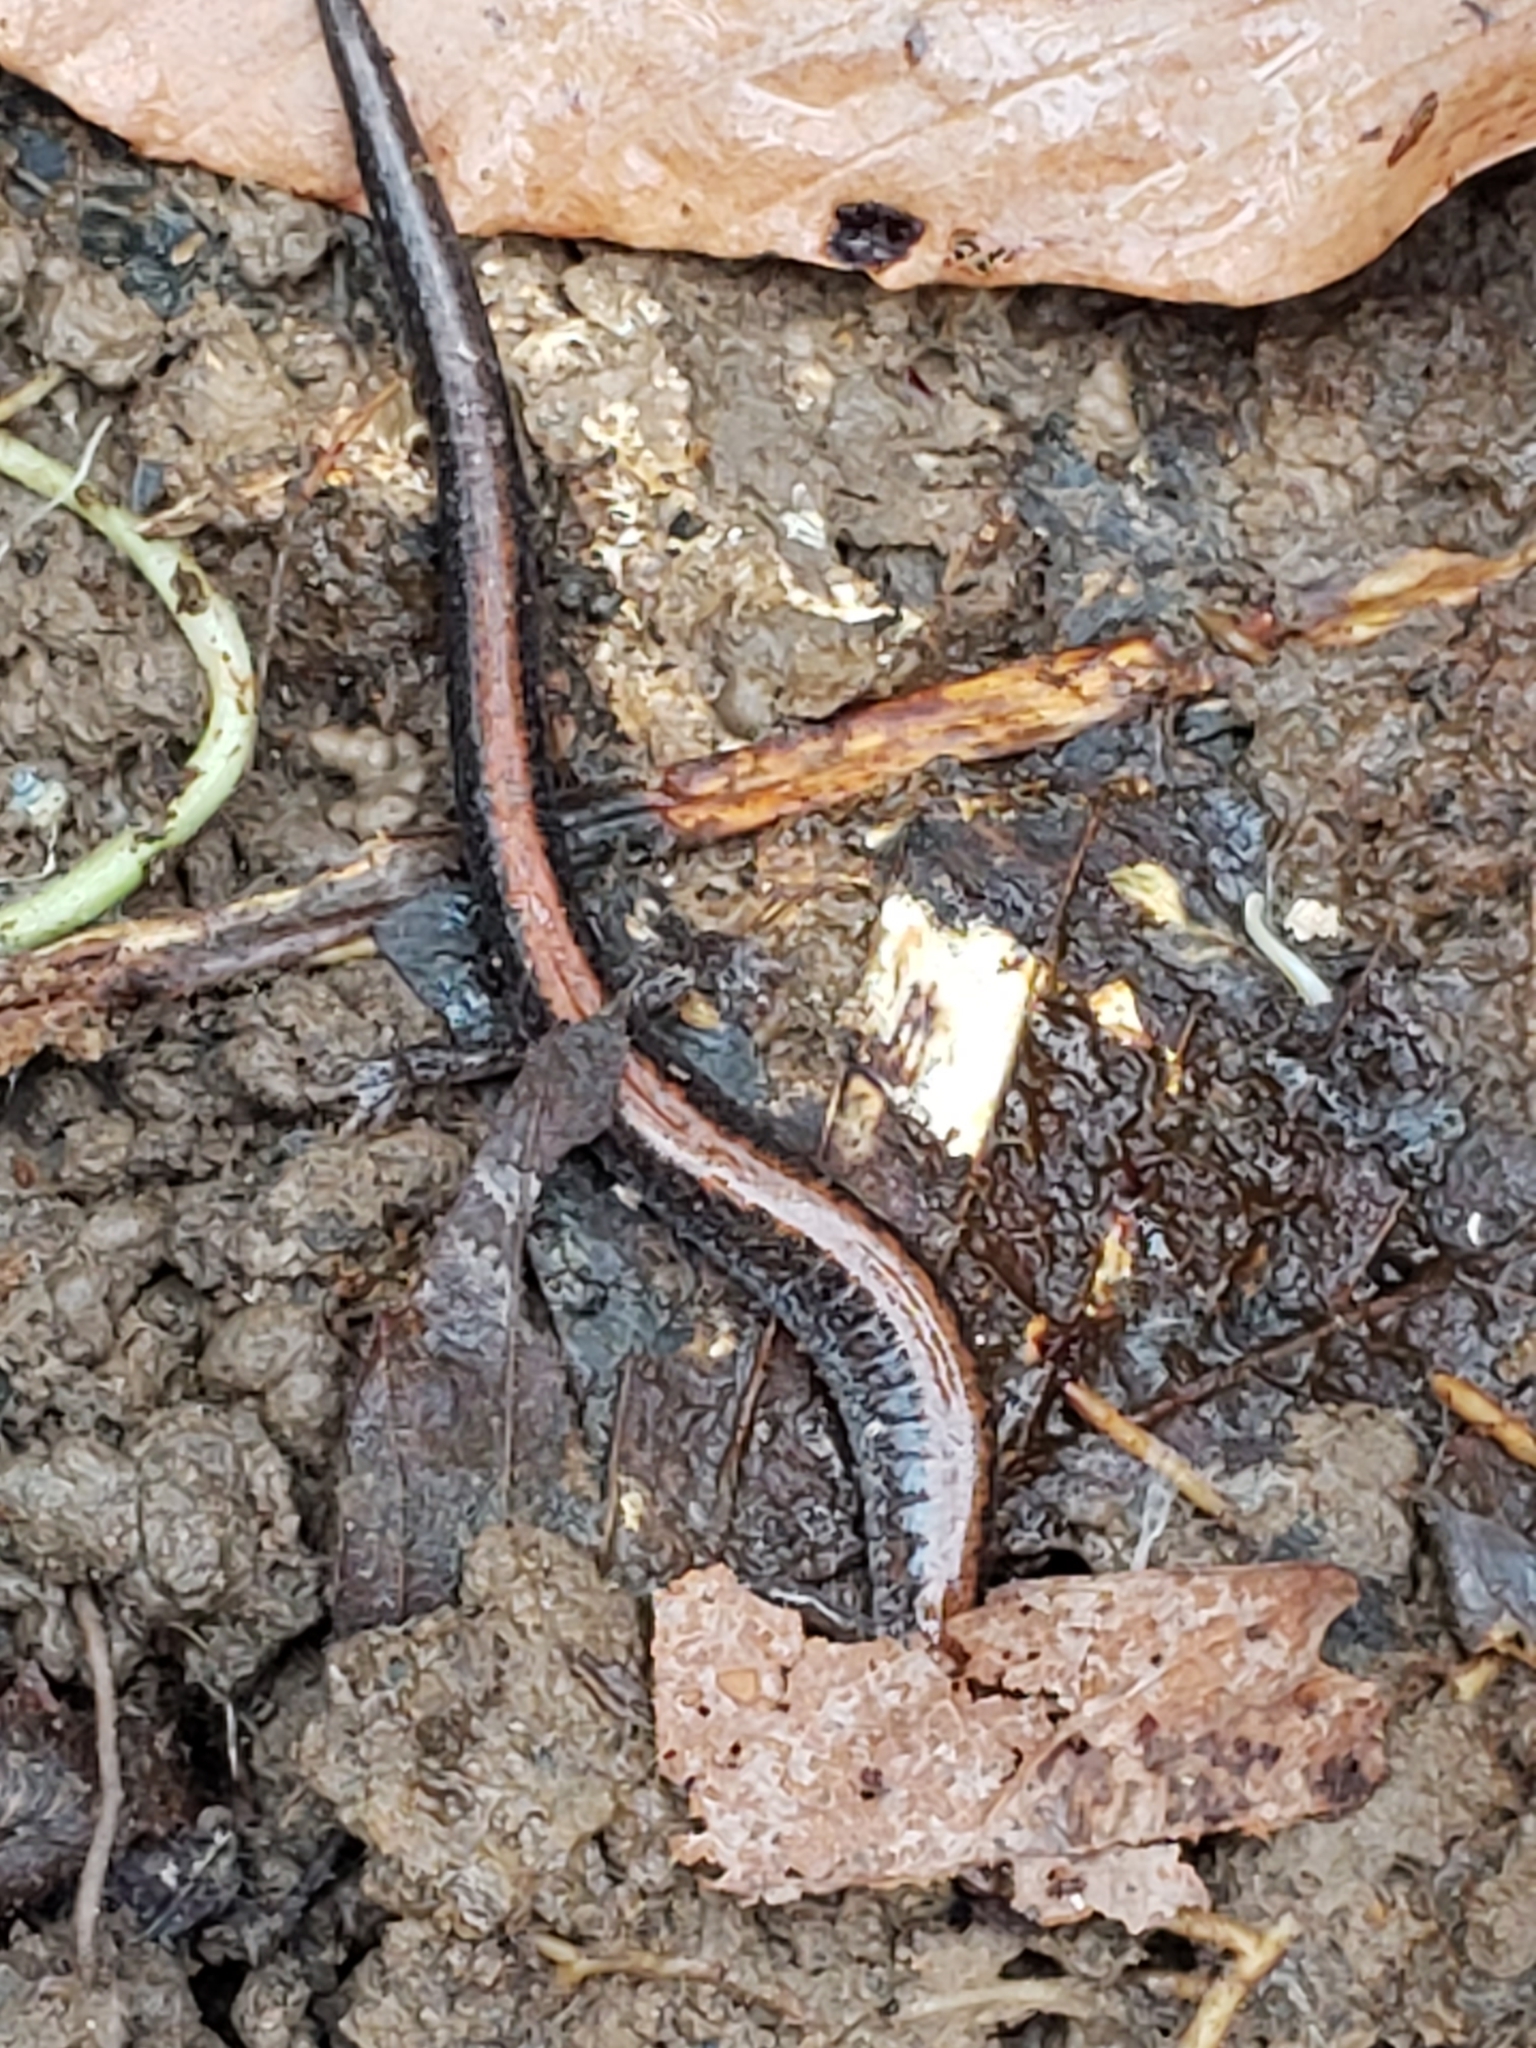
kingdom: Animalia
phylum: Chordata
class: Amphibia
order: Caudata
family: Plethodontidae
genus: Plethodon
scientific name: Plethodon cinereus
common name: Redback salamander
